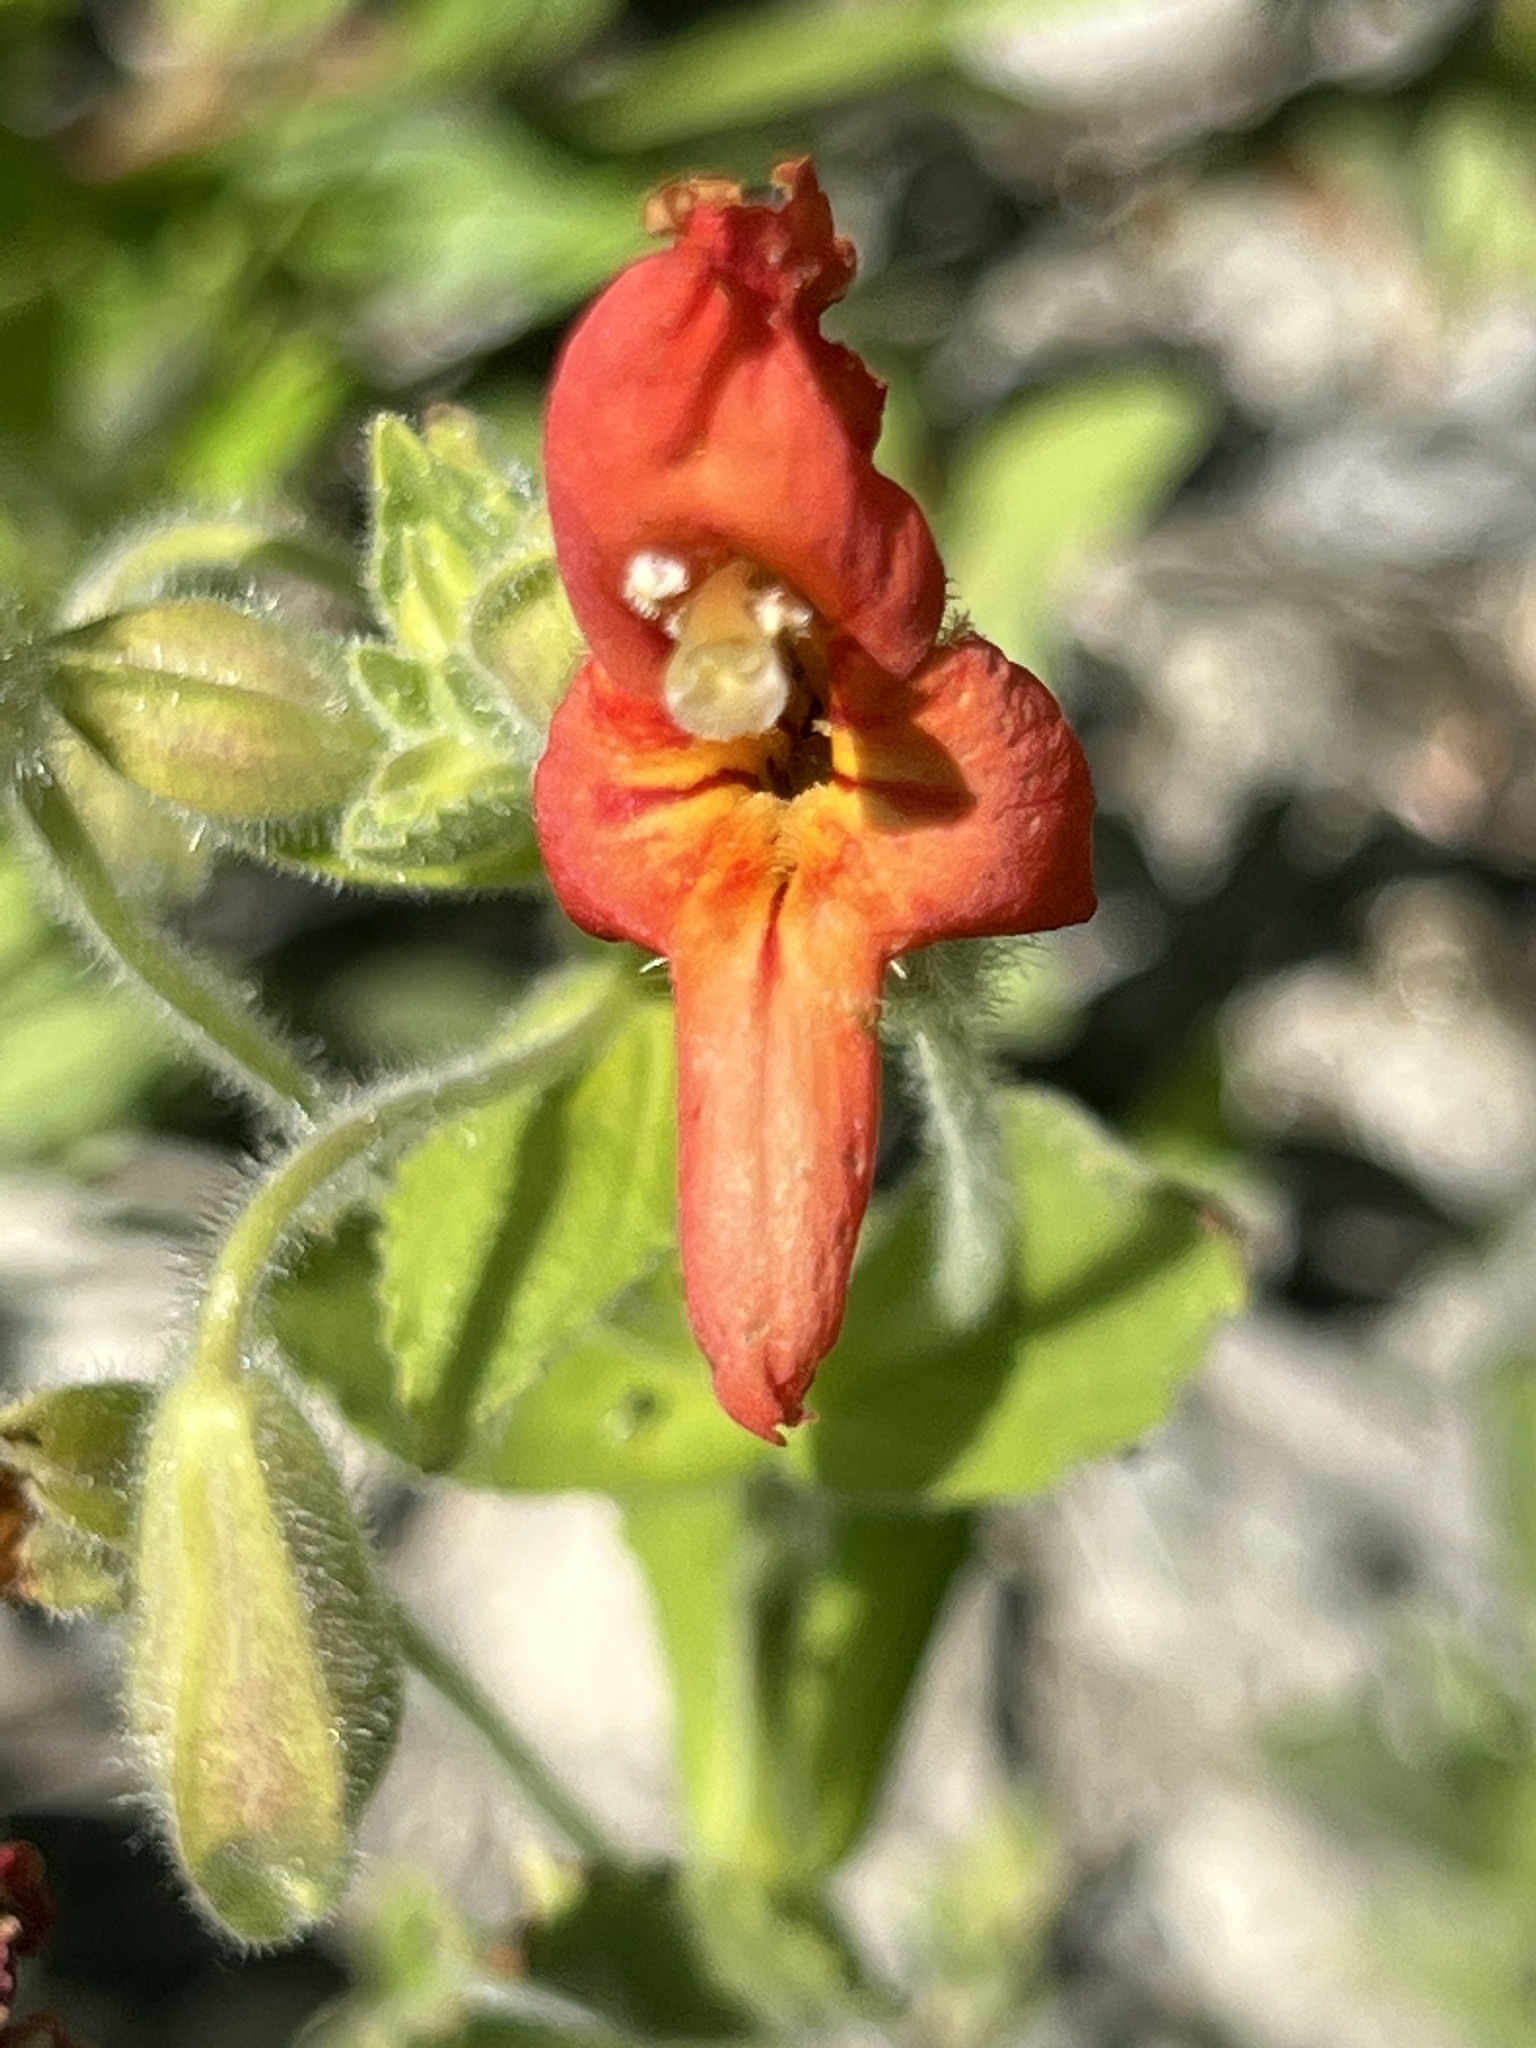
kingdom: Plantae
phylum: Tracheophyta
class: Magnoliopsida
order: Lamiales
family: Phrymaceae
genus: Erythranthe
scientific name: Erythranthe cardinalis
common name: Scarlet monkey-flower
